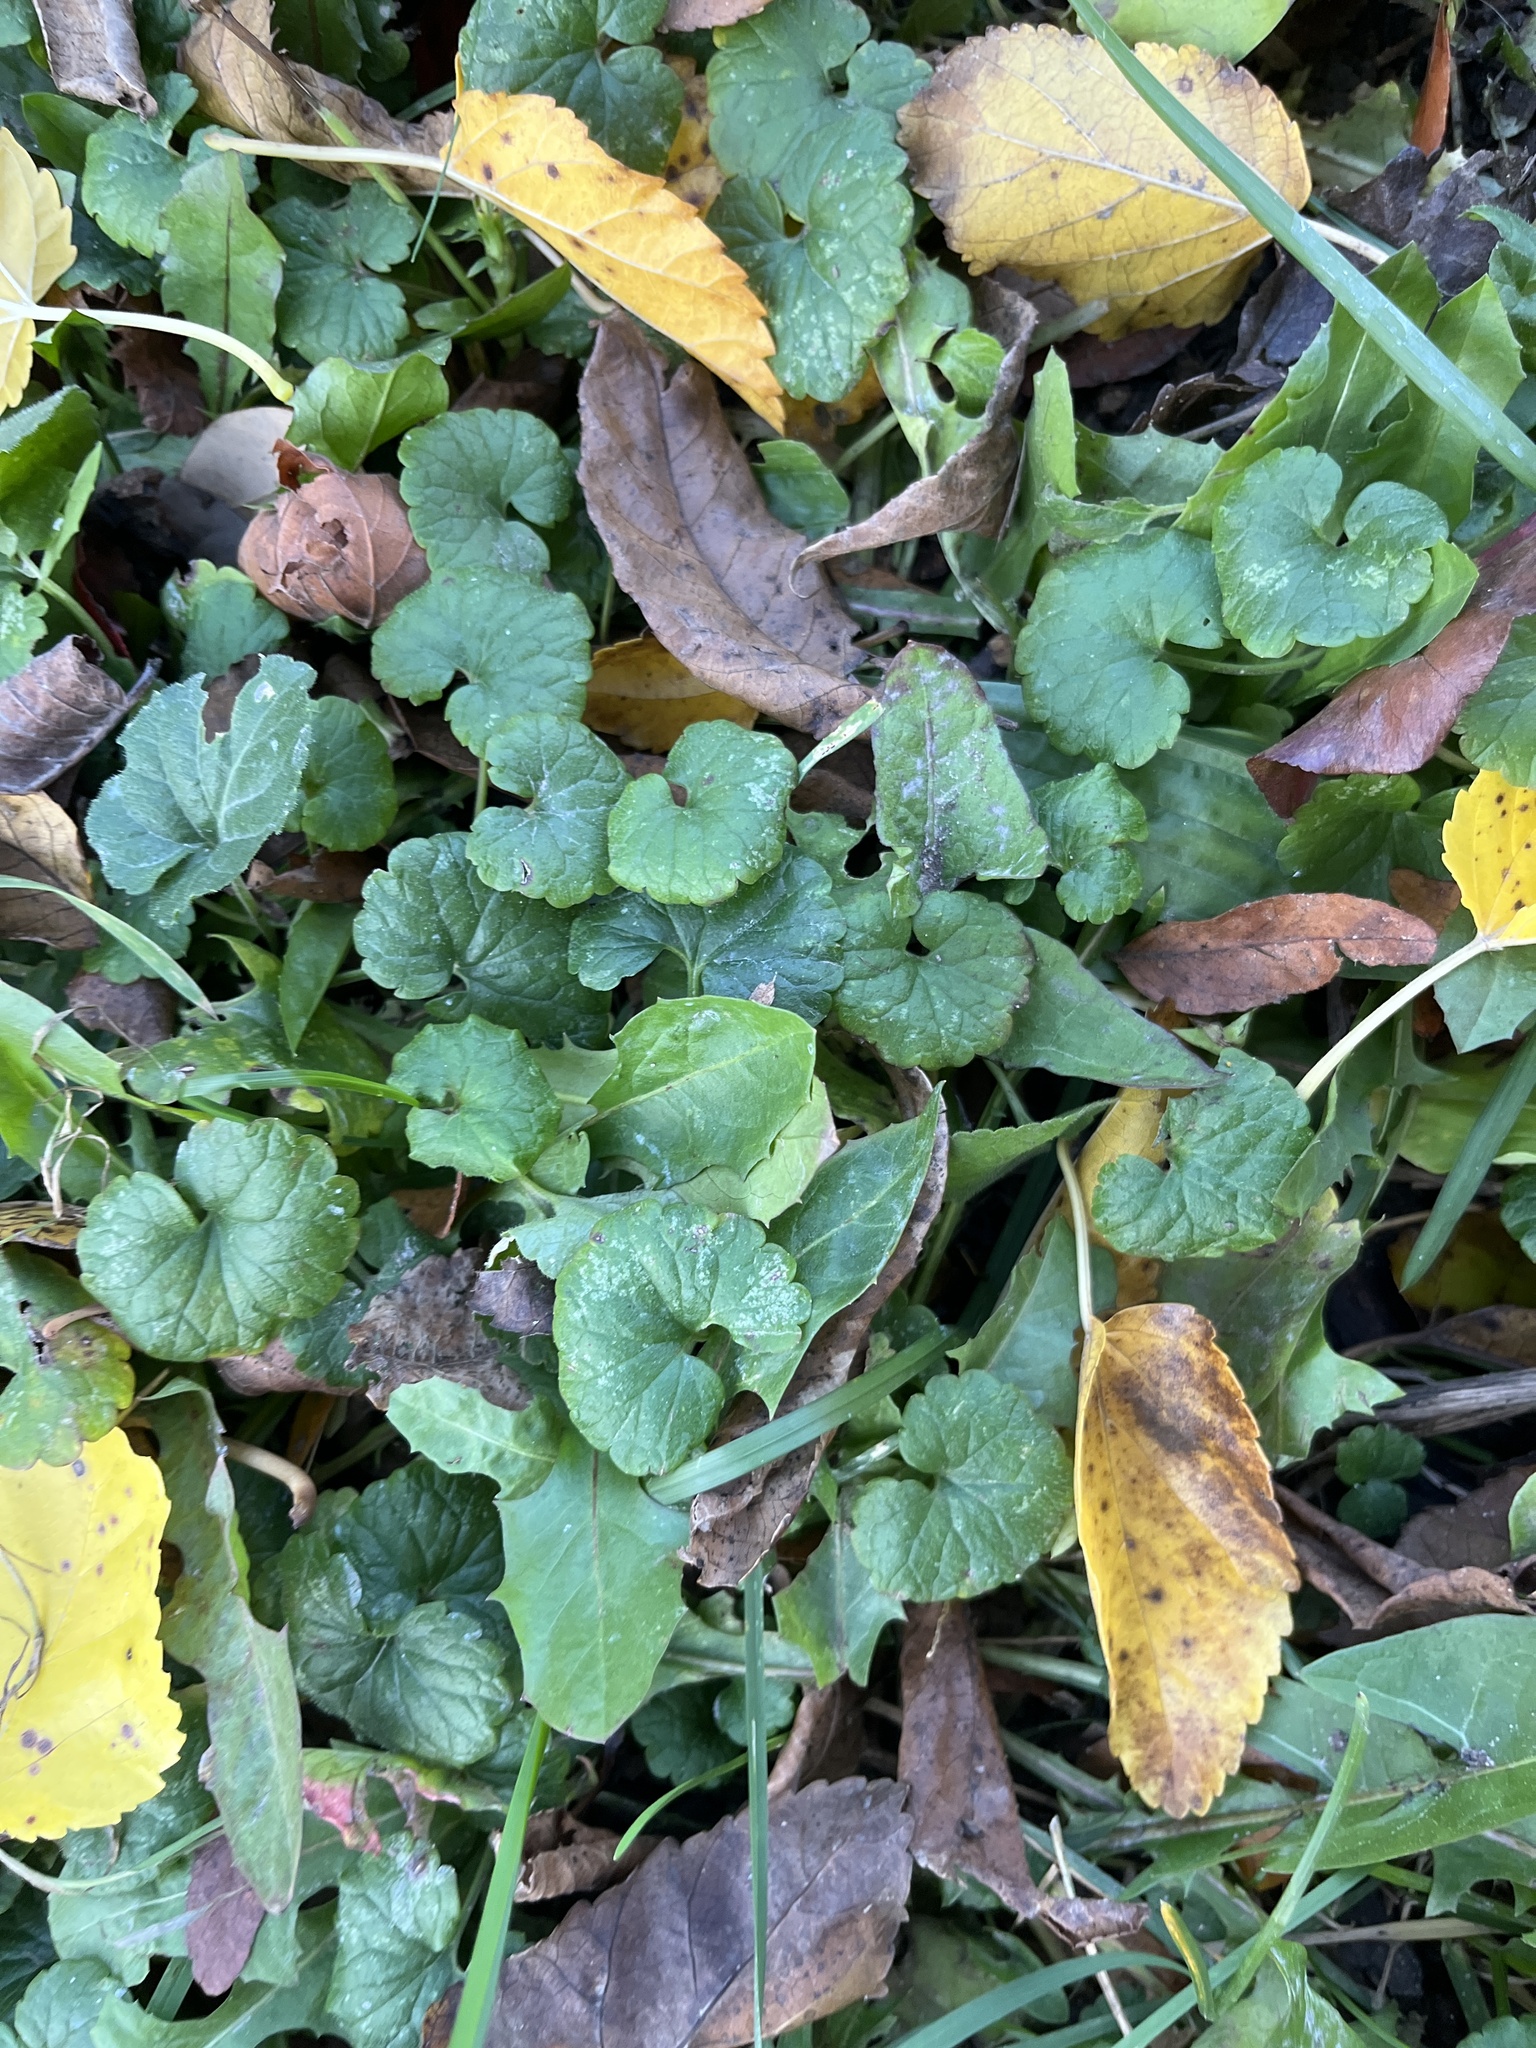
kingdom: Plantae
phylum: Tracheophyta
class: Magnoliopsida
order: Lamiales
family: Lamiaceae
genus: Glechoma
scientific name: Glechoma hederacea
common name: Ground ivy
